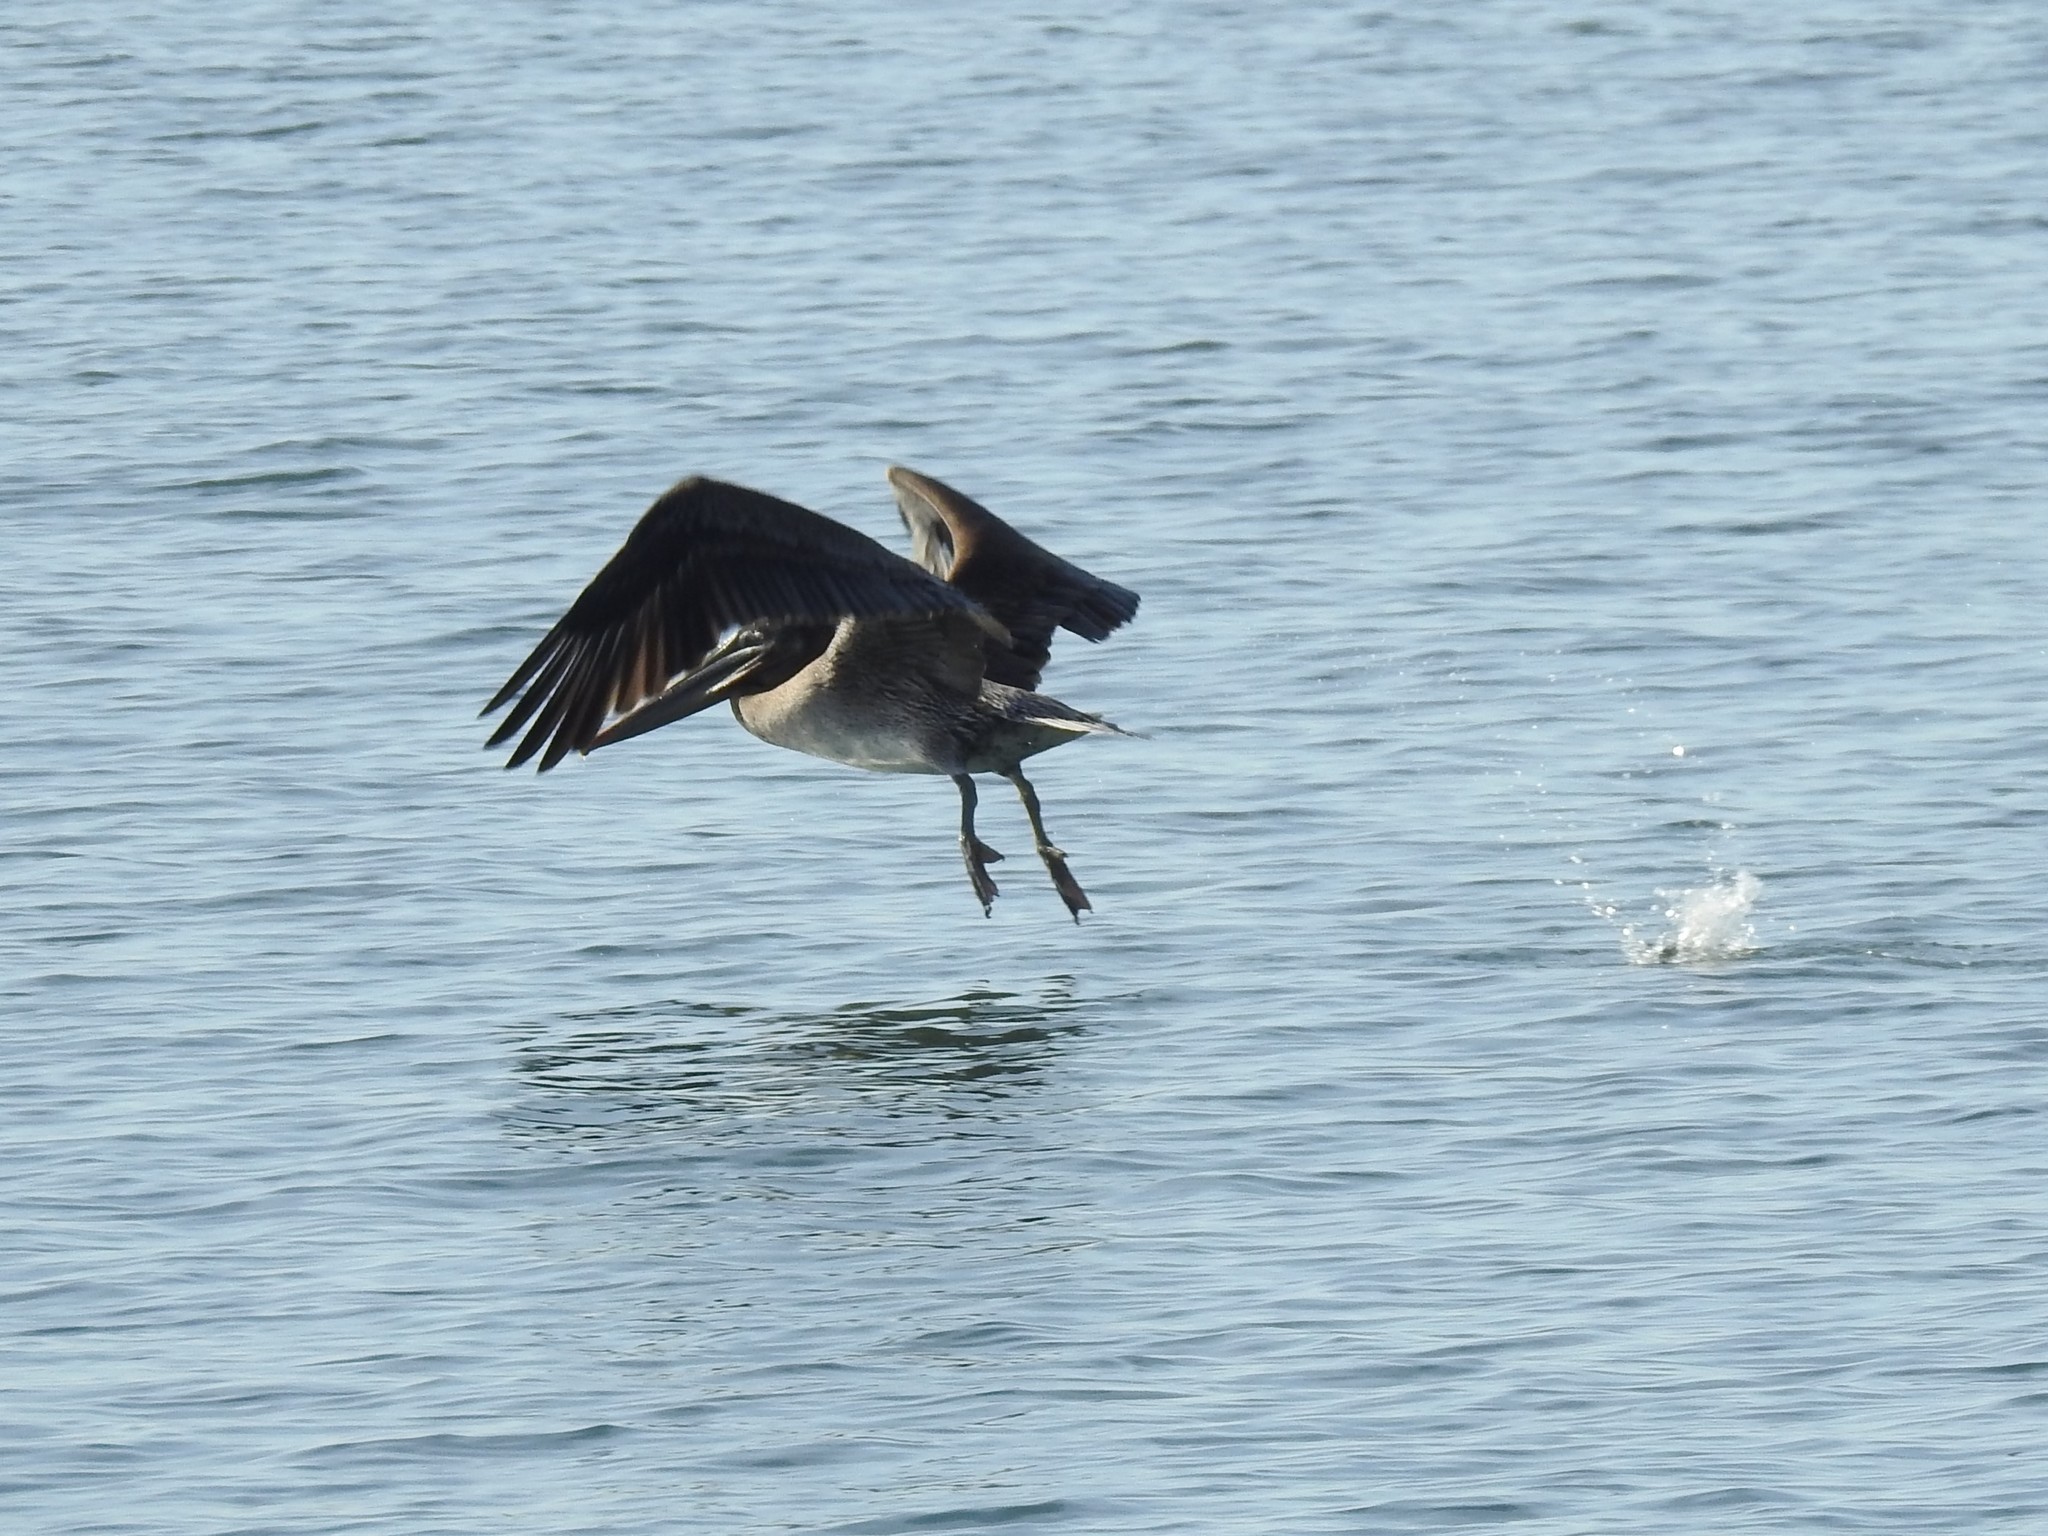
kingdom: Animalia
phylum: Chordata
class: Aves
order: Pelecaniformes
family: Pelecanidae
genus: Pelecanus
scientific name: Pelecanus occidentalis
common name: Brown pelican
